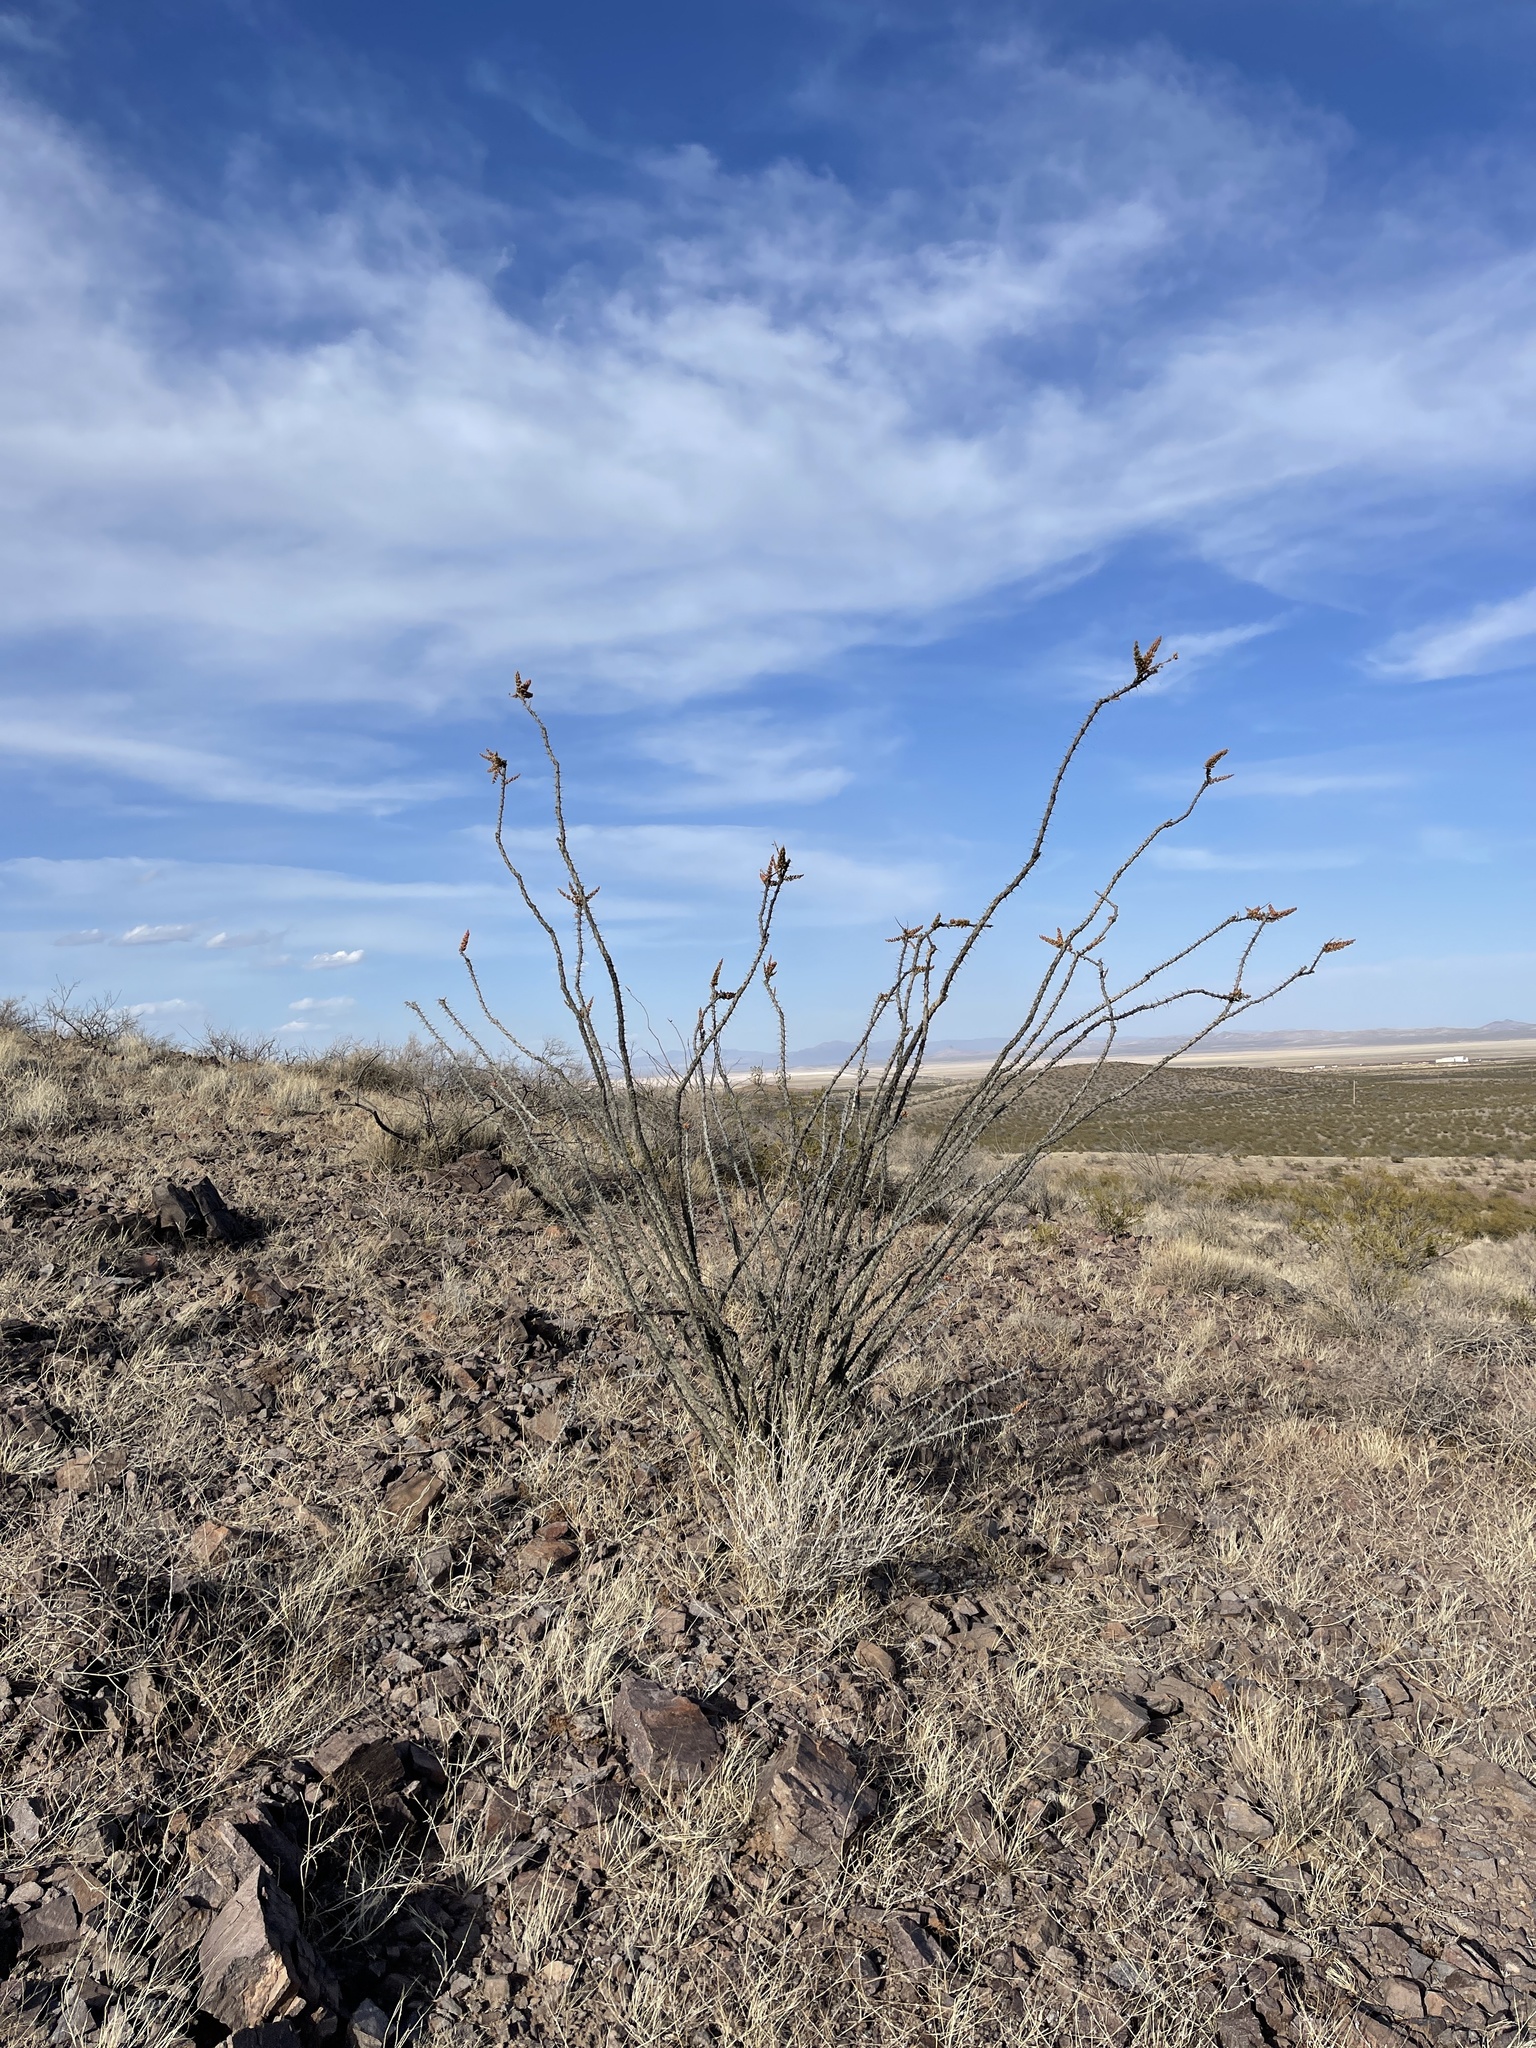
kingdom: Plantae
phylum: Tracheophyta
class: Magnoliopsida
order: Ericales
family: Fouquieriaceae
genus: Fouquieria
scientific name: Fouquieria splendens
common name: Vine-cactus
